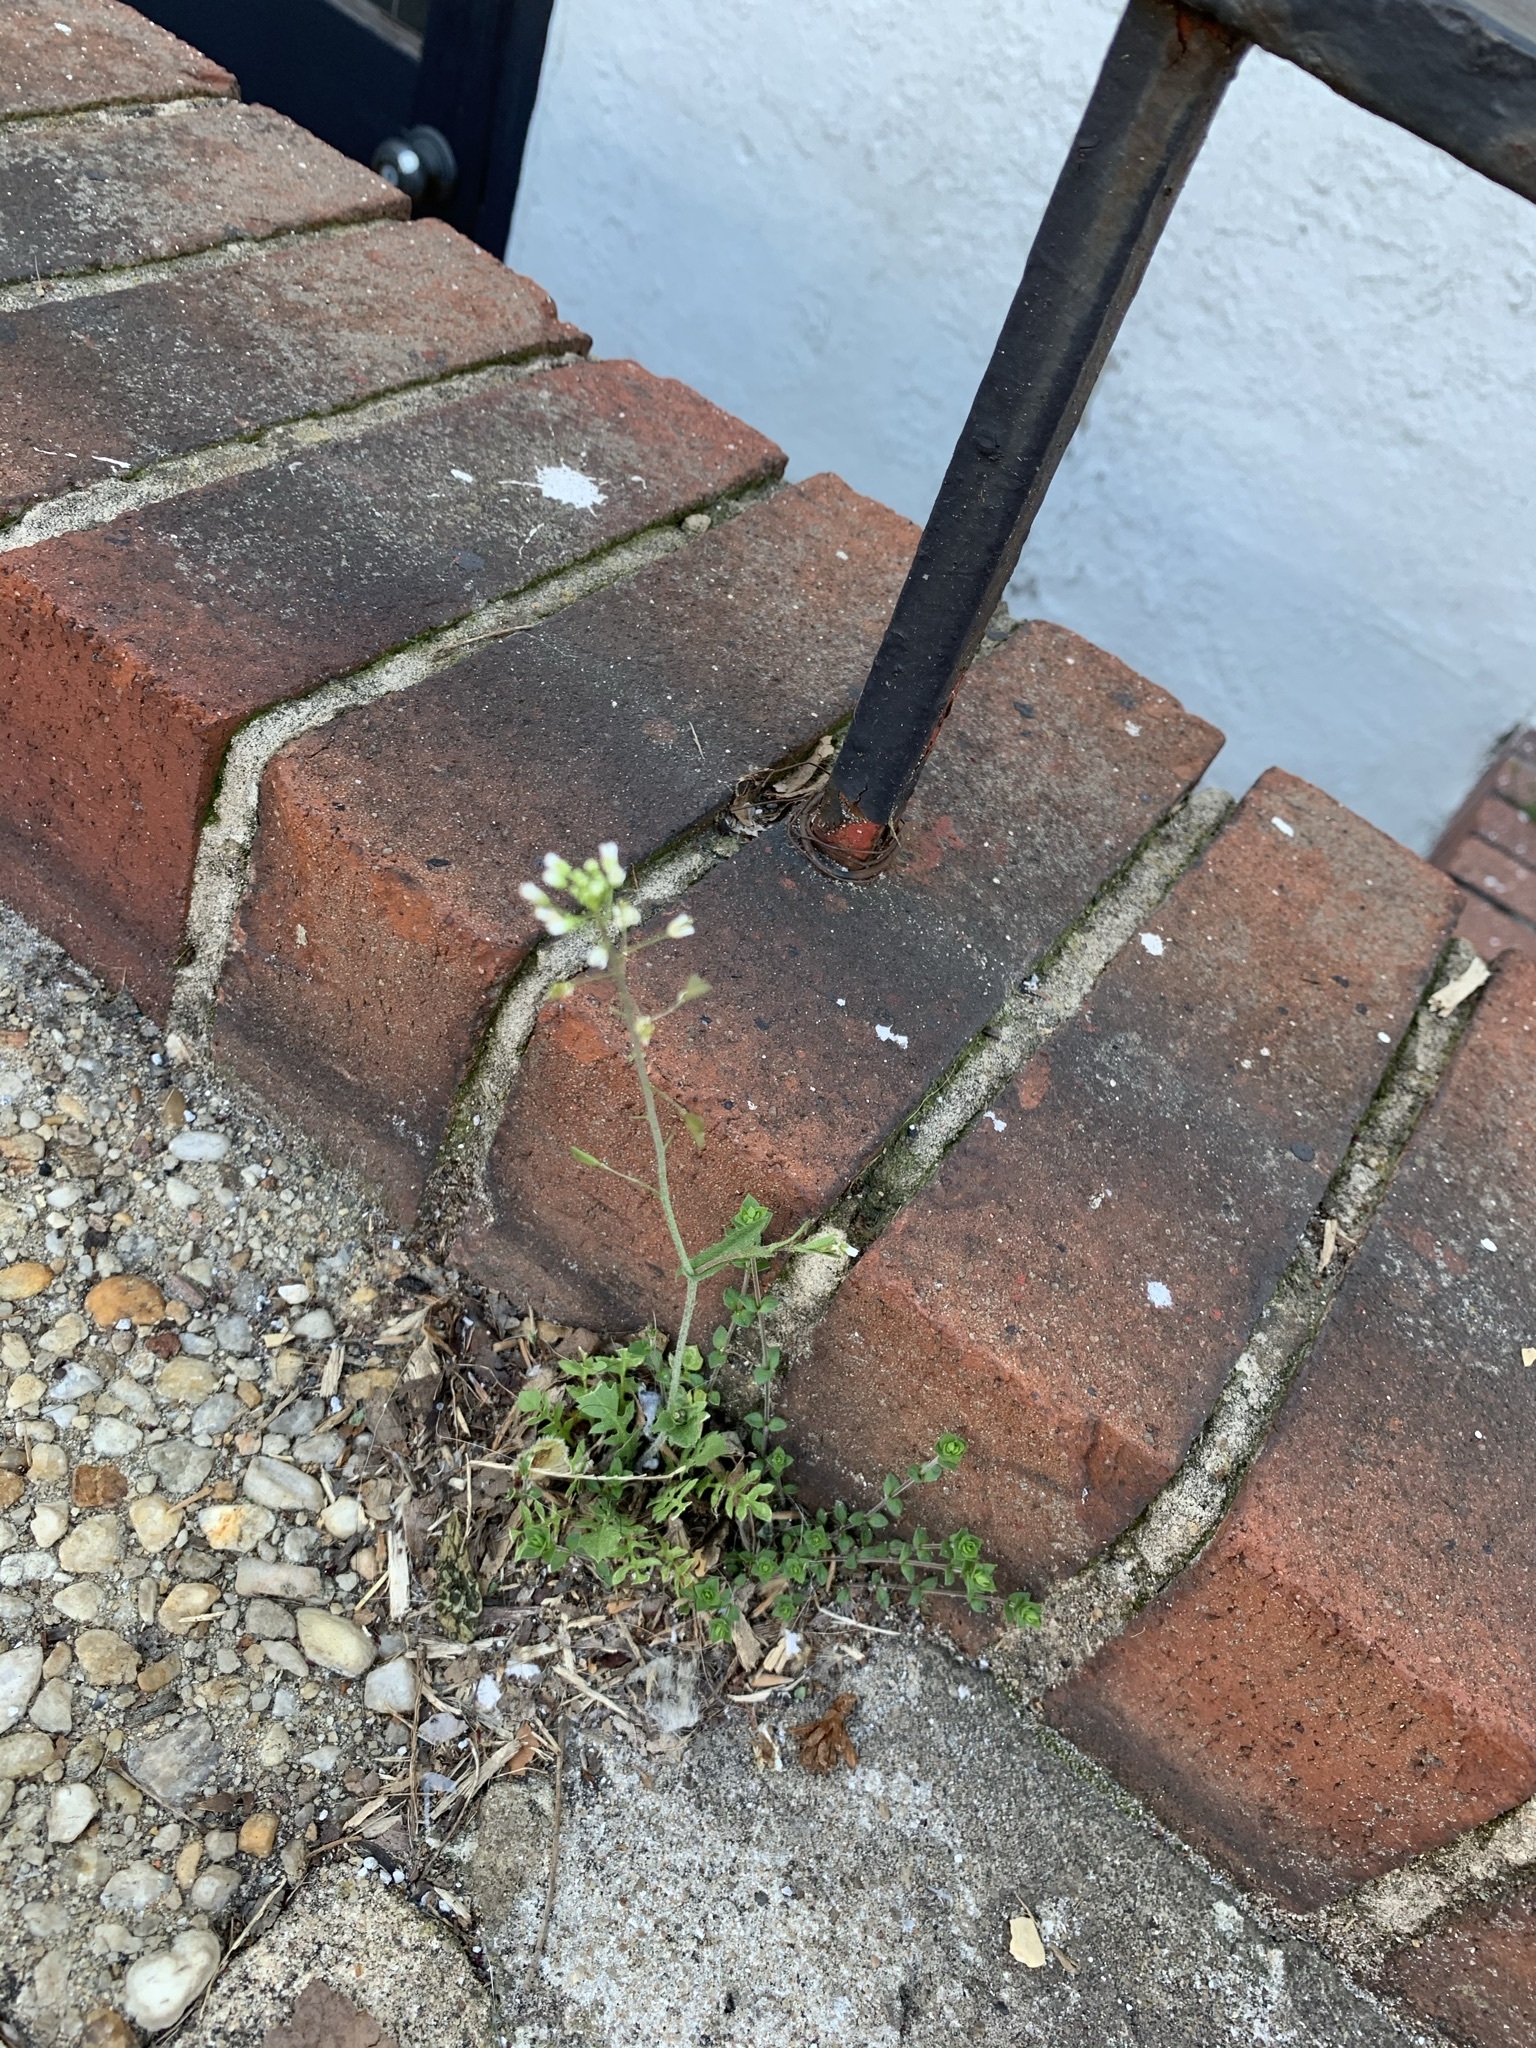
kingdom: Plantae
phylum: Tracheophyta
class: Magnoliopsida
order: Brassicales
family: Brassicaceae
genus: Capsella
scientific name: Capsella bursa-pastoris
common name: Shepherd's purse
